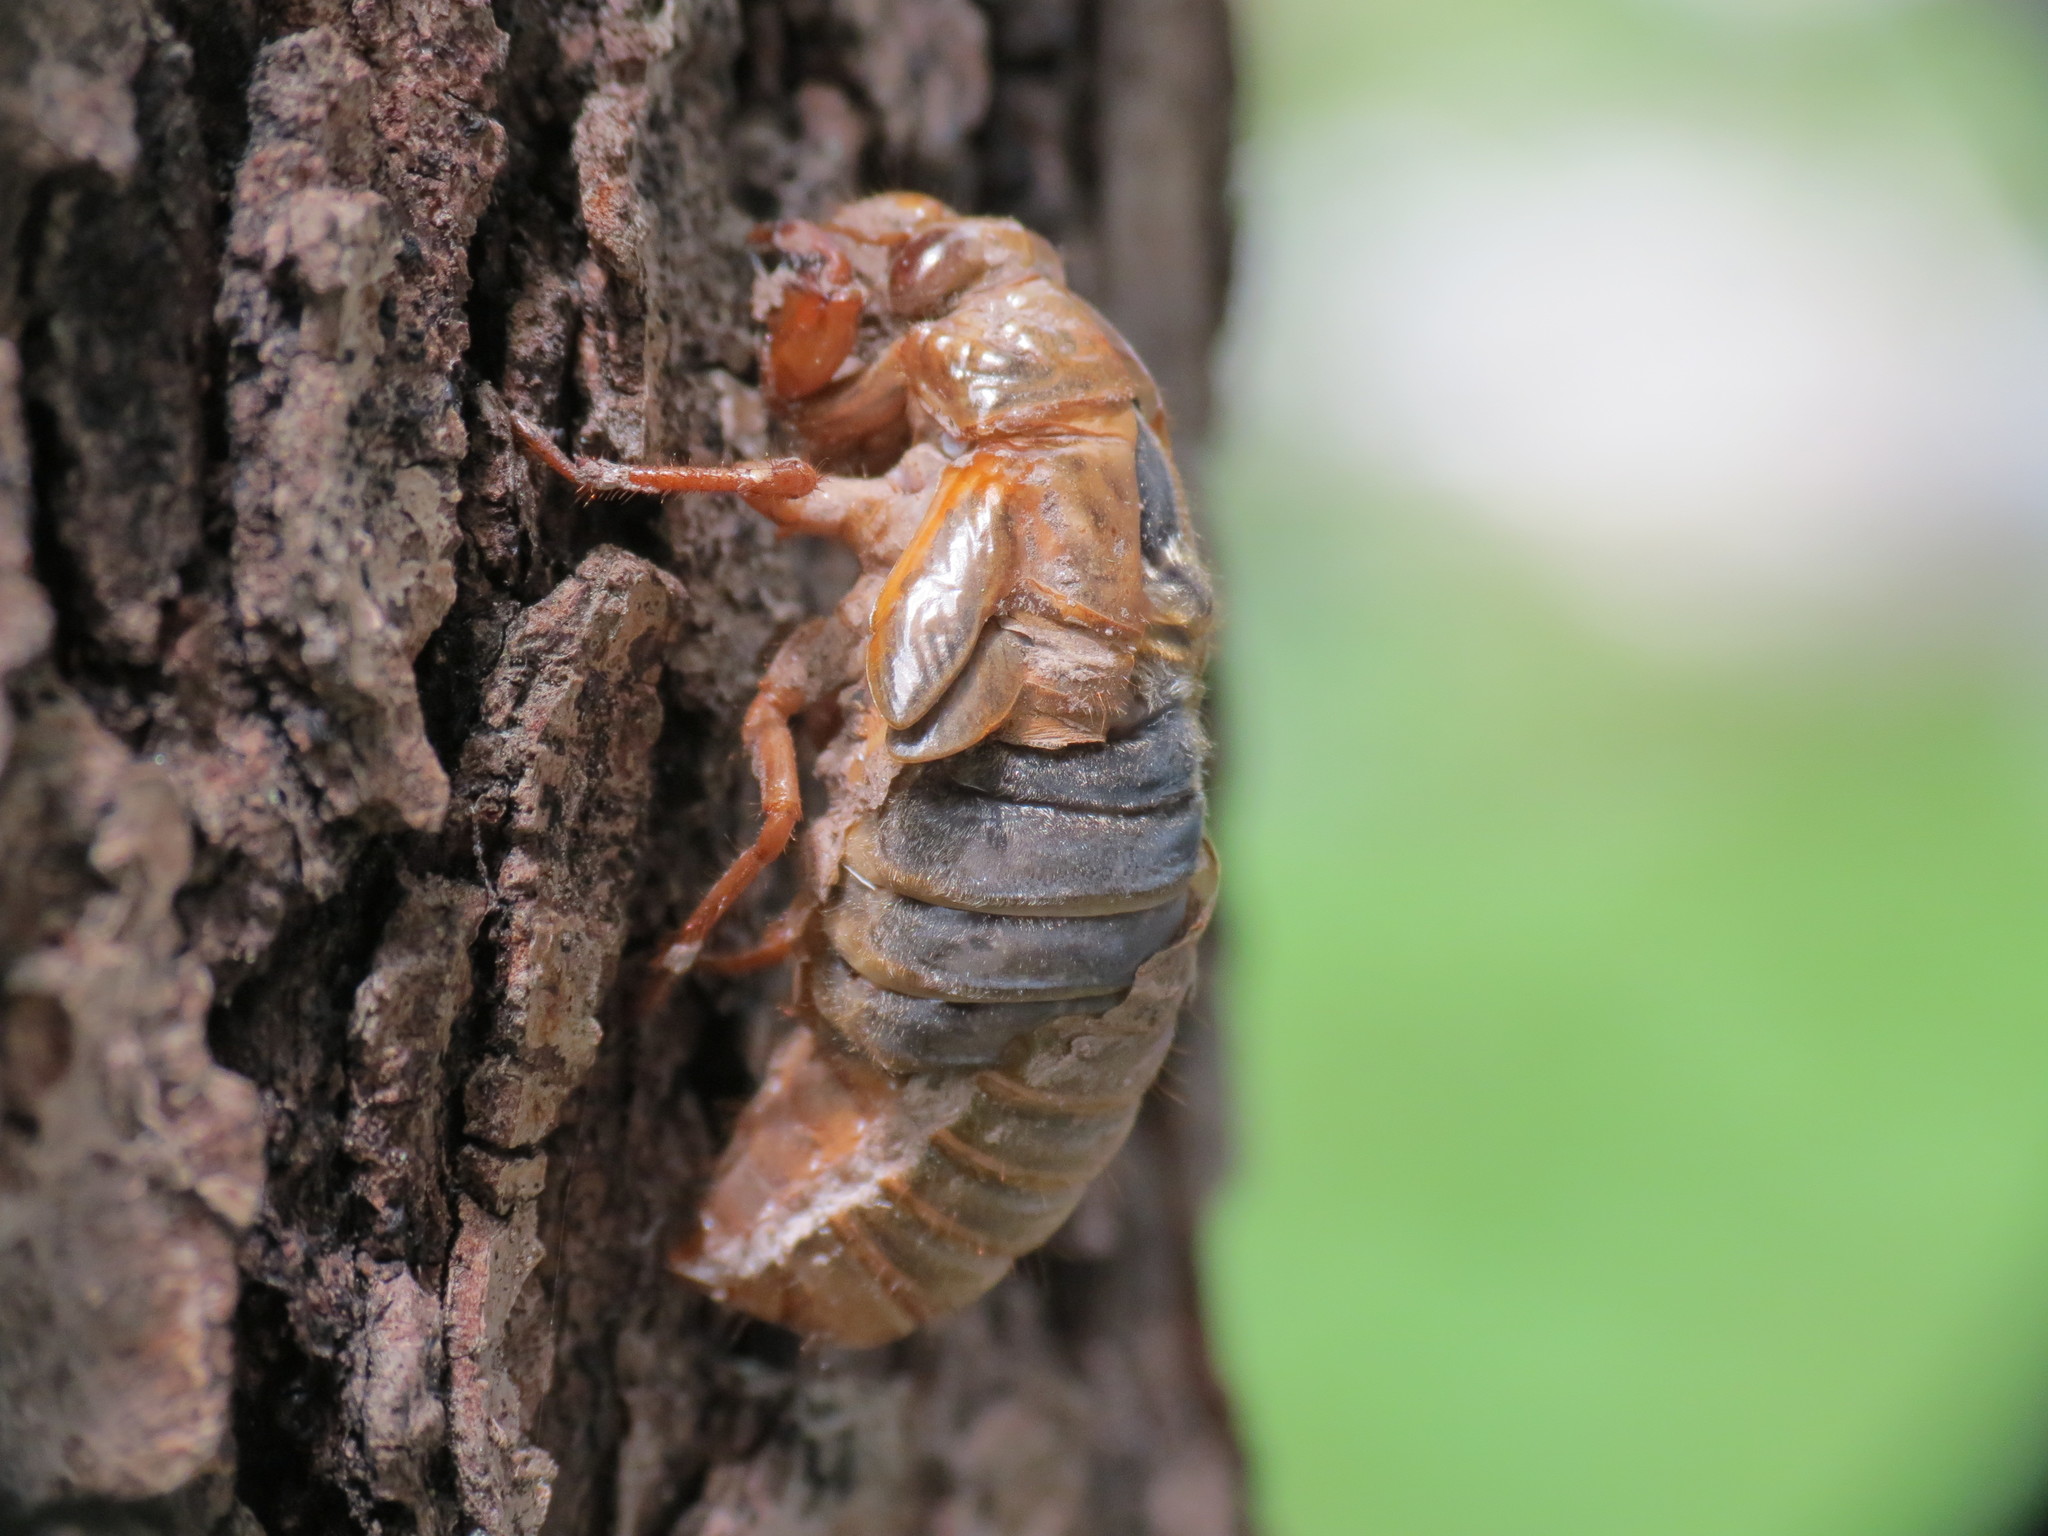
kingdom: Animalia
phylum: Arthropoda
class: Insecta
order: Hemiptera
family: Cicadidae
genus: Magicicada
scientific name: Magicicada
